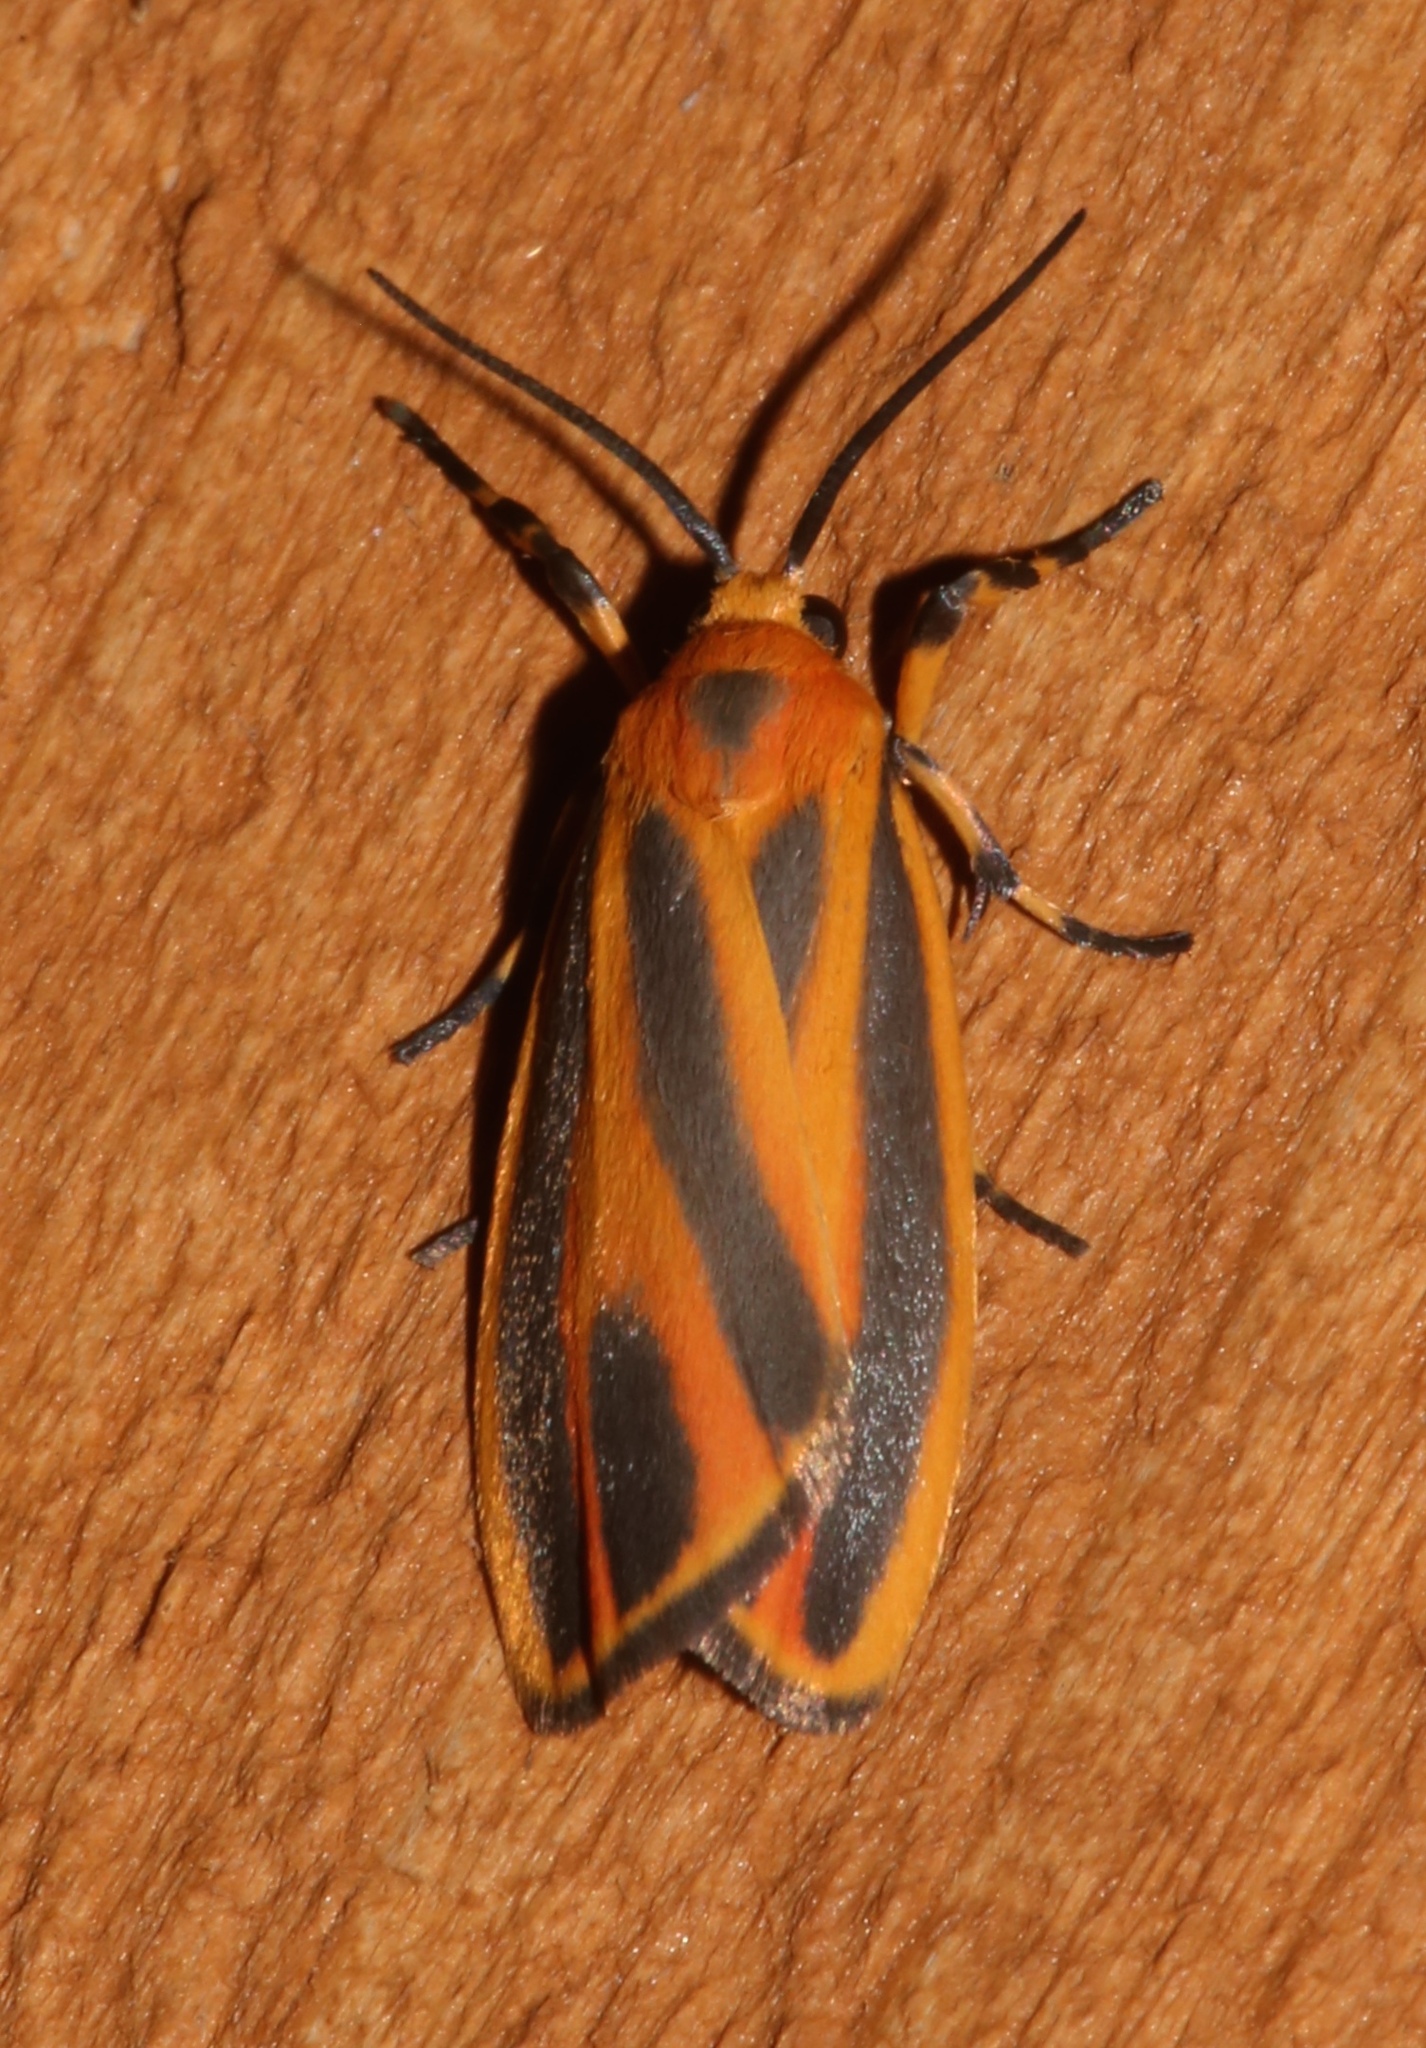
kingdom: Animalia
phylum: Arthropoda
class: Insecta
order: Lepidoptera
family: Erebidae
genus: Hypoprepia
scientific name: Hypoprepia fucosa
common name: Painted lichen moth
